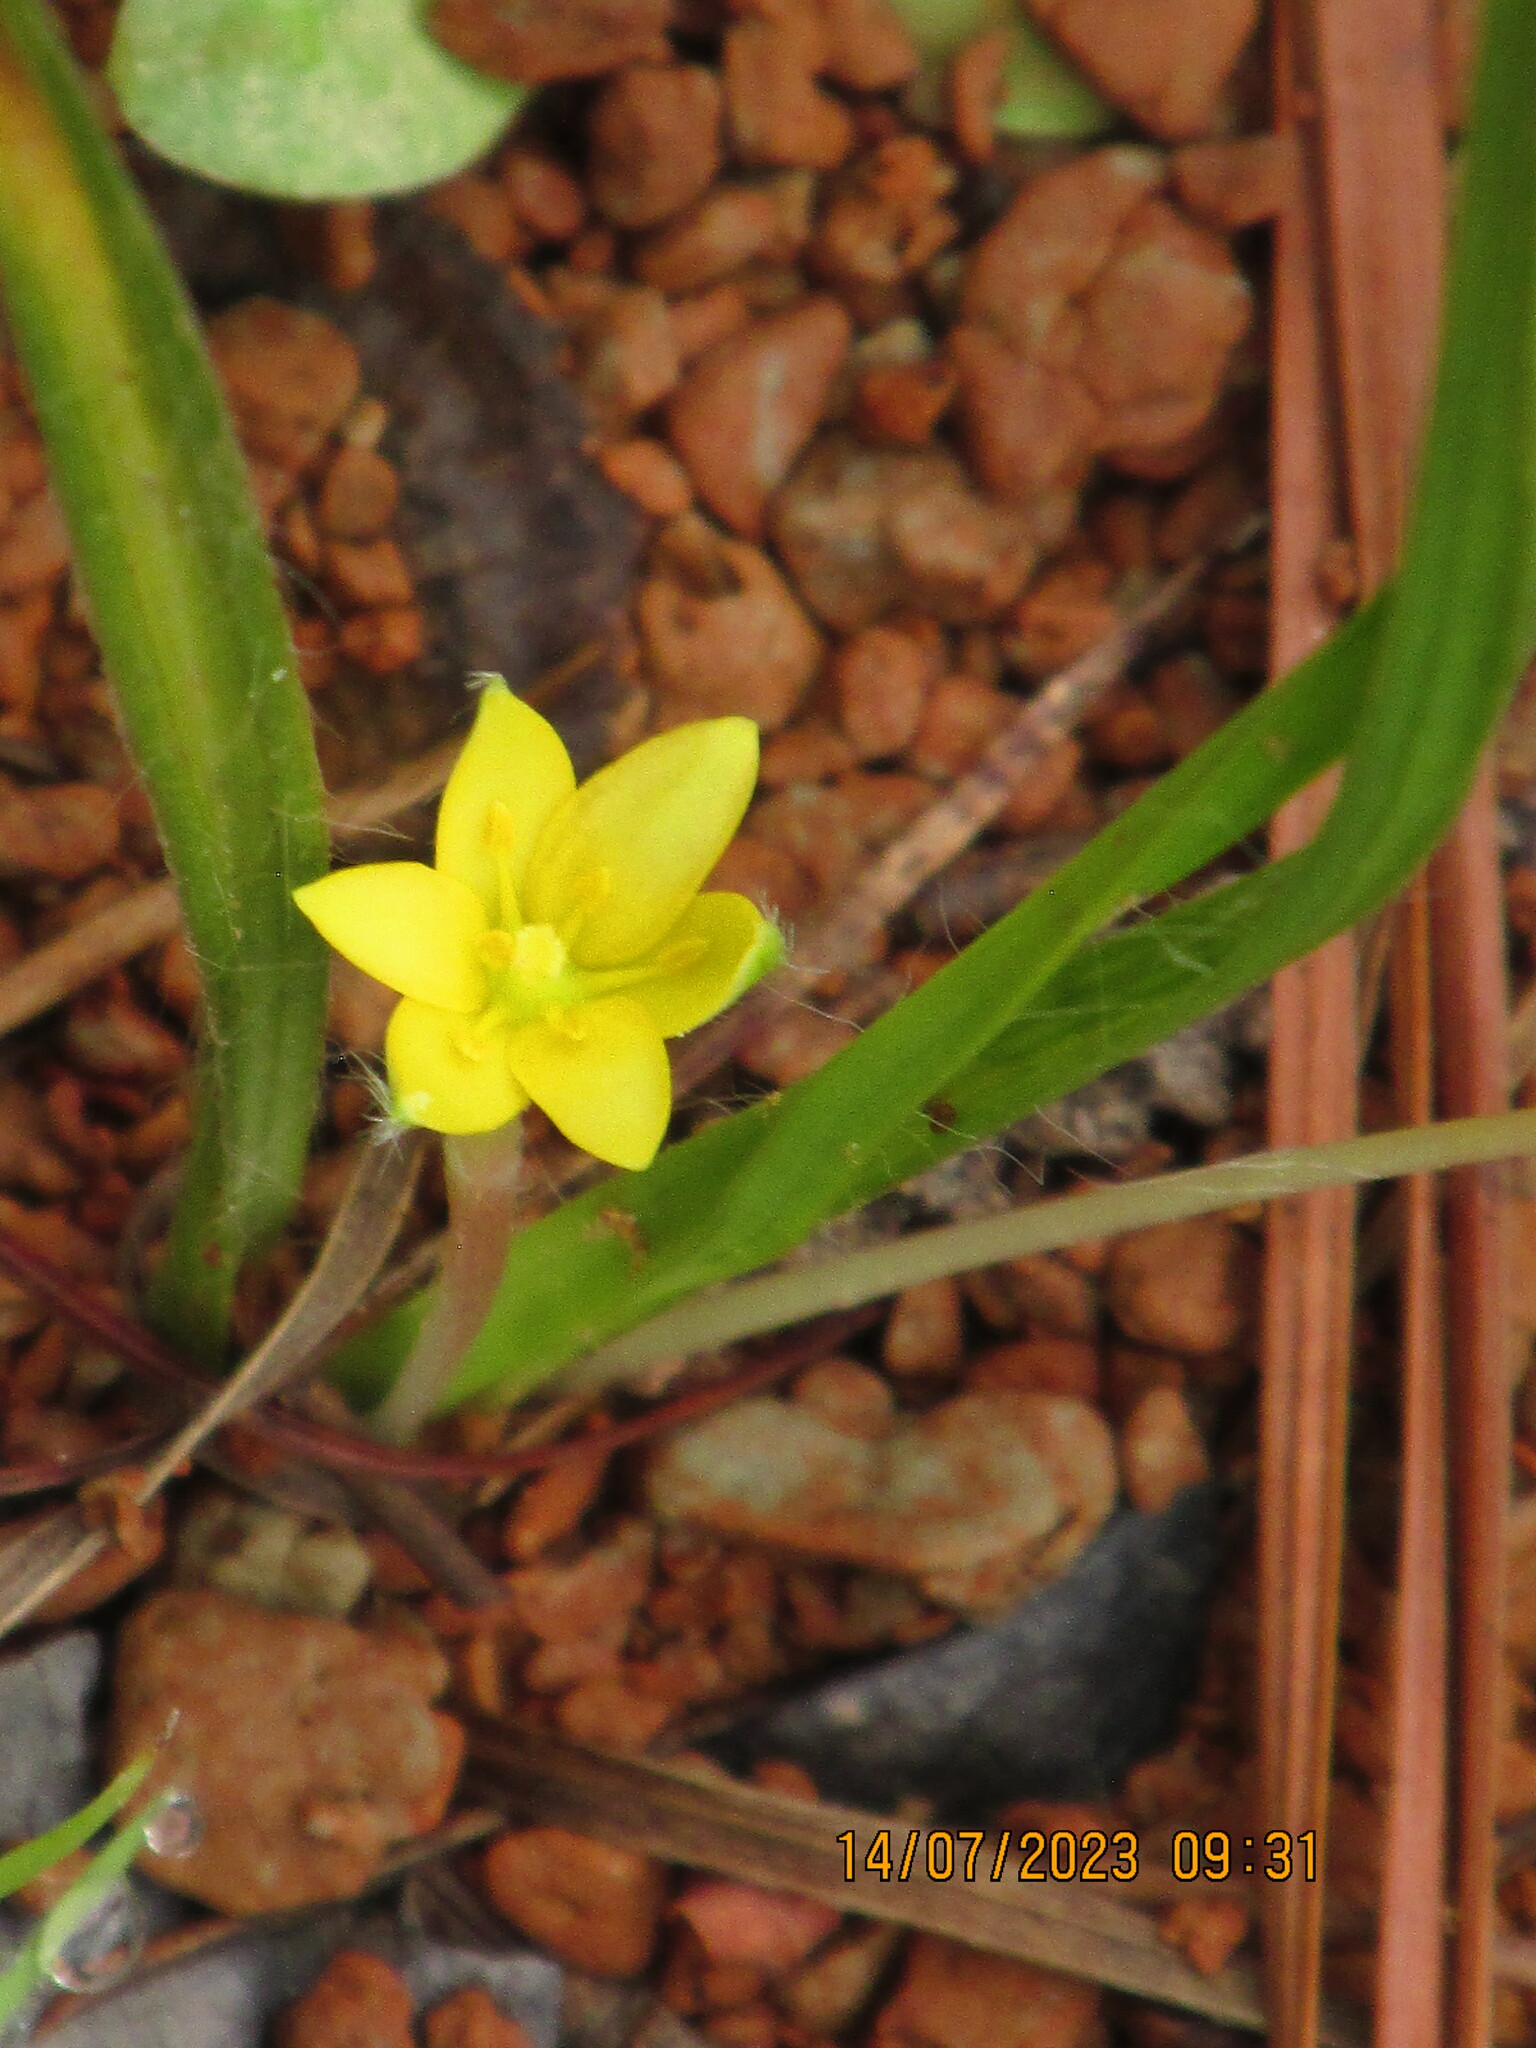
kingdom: Plantae
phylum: Tracheophyta
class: Liliopsida
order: Asparagales
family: Hypoxidaceae
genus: Hypoxis
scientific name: Hypoxis hirsuta
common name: Common goldstar
